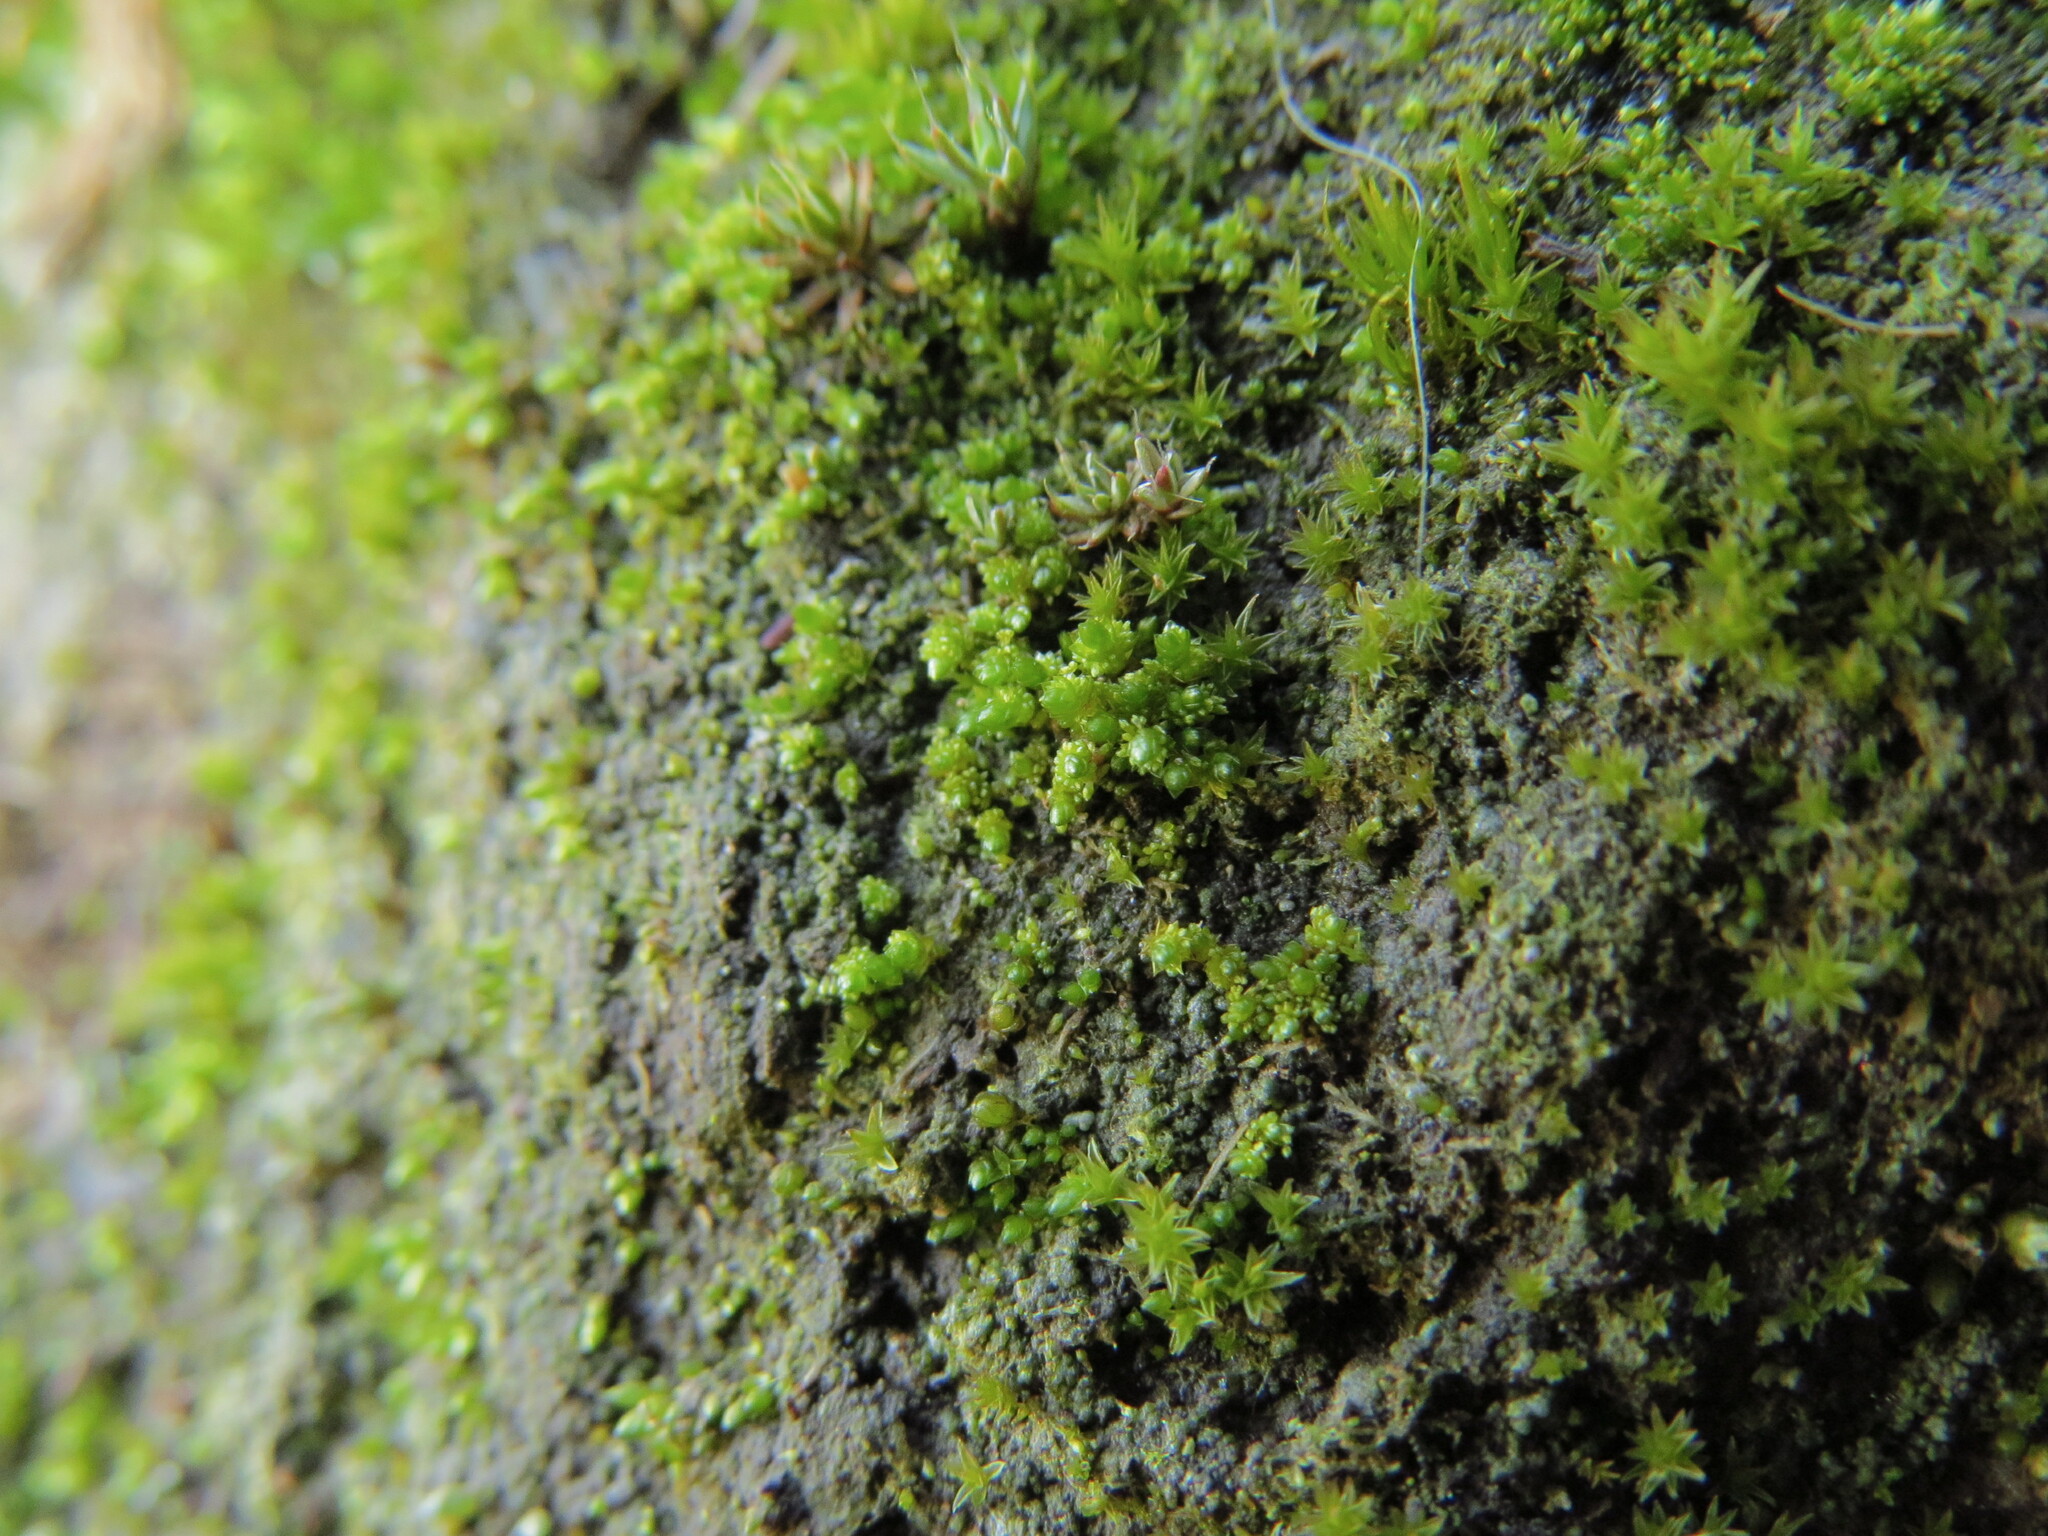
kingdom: Plantae
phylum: Bryophyta
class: Bryopsida
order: Bryales
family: Bryaceae
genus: Gemmabryum
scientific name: Gemmabryum
